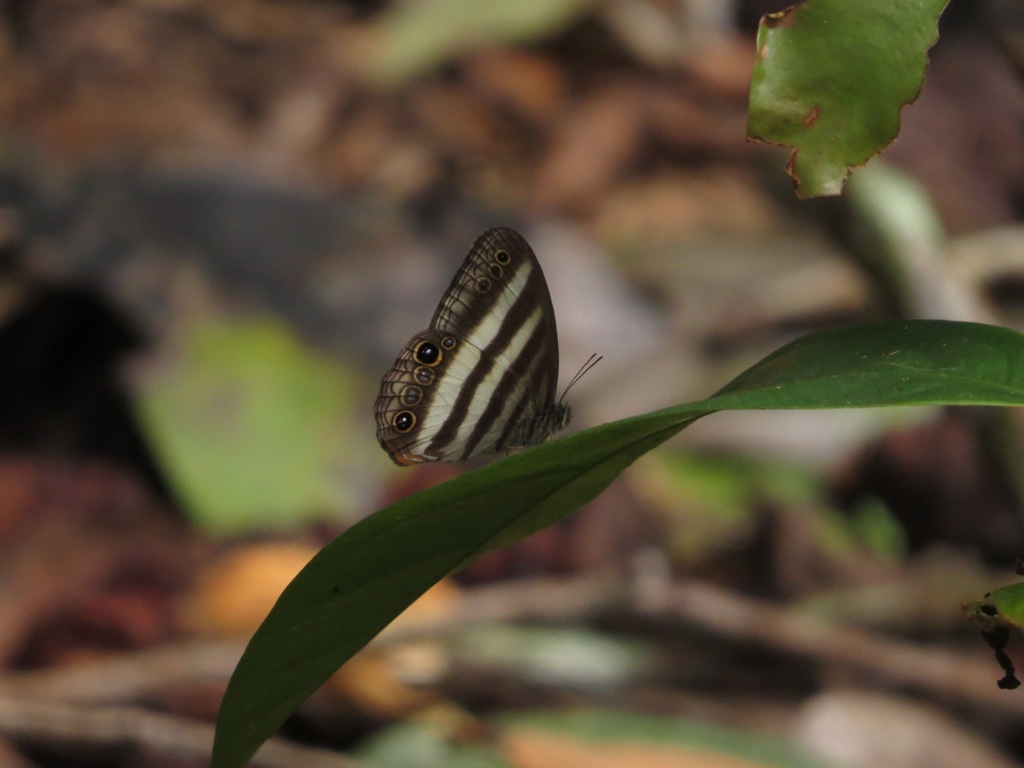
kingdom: Animalia
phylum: Arthropoda
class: Insecta
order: Lepidoptera
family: Nymphalidae
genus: Pareuptychia
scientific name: Pareuptychia hesione
